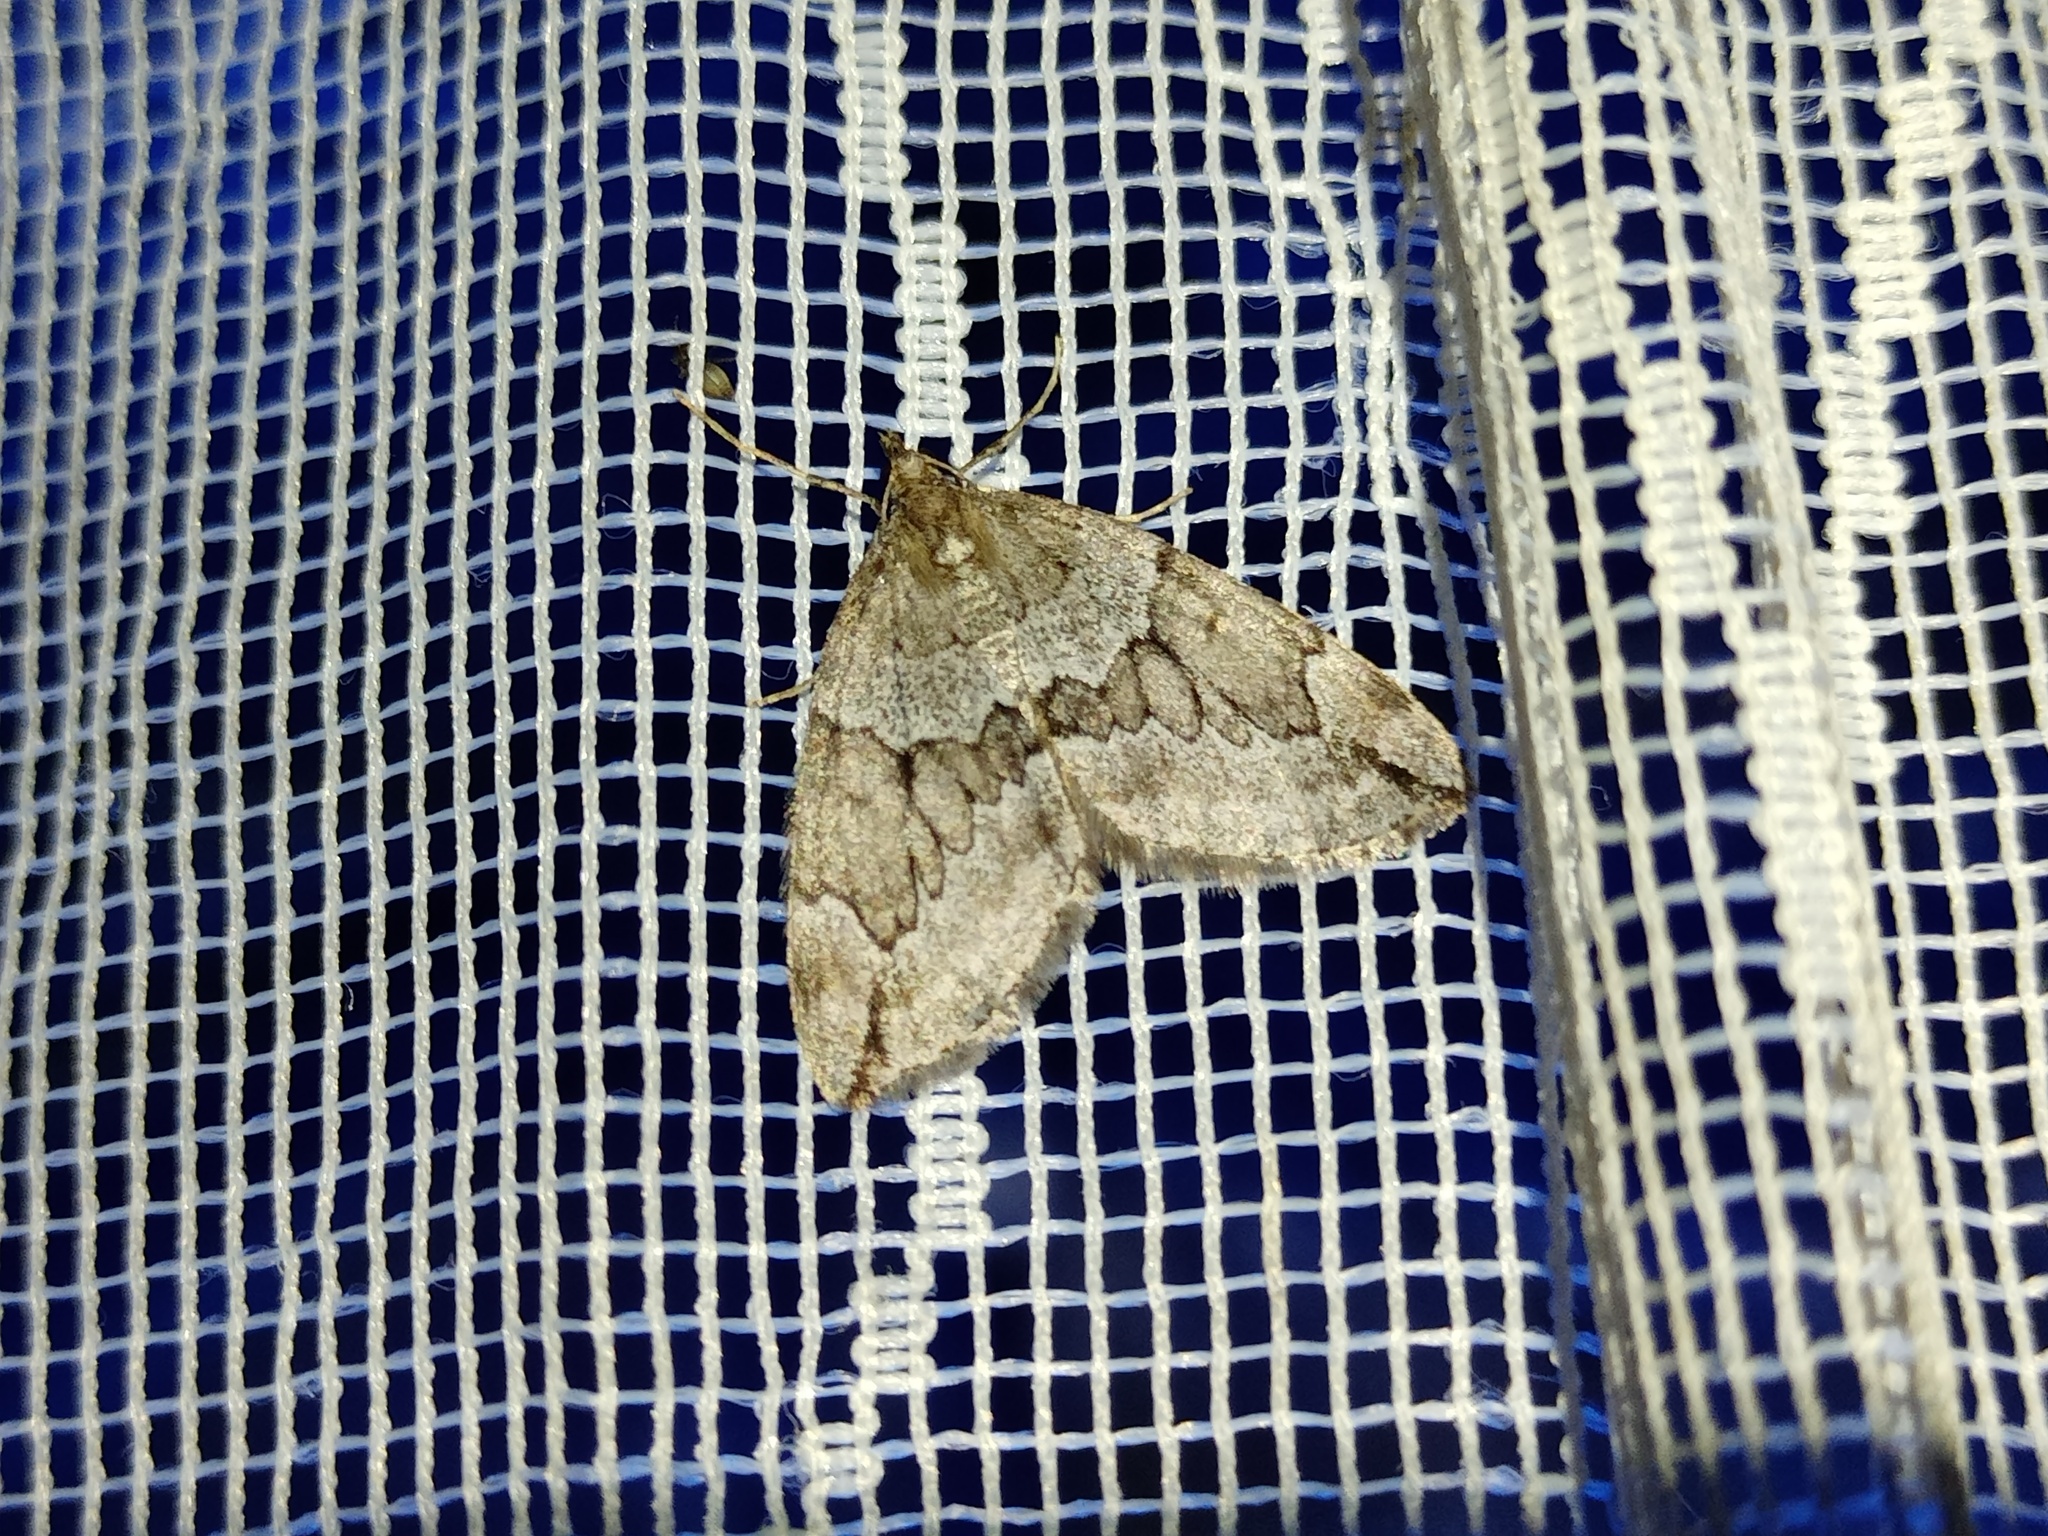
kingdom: Animalia
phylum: Arthropoda
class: Insecta
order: Lepidoptera
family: Geometridae
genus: Thera
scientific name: Thera juniperata
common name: Juniper carpet
